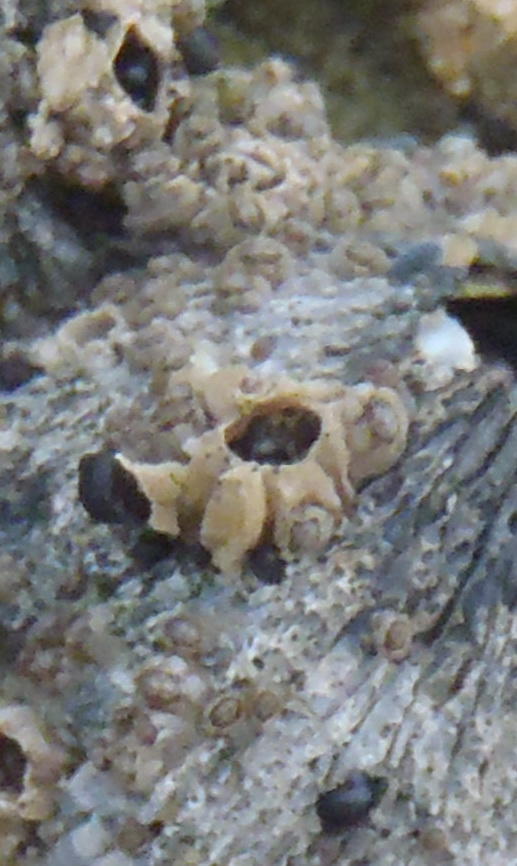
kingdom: Animalia
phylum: Arthropoda
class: Maxillopoda
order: Sessilia
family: Chthamalidae
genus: Chthamalus
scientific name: Chthamalus dentatus
